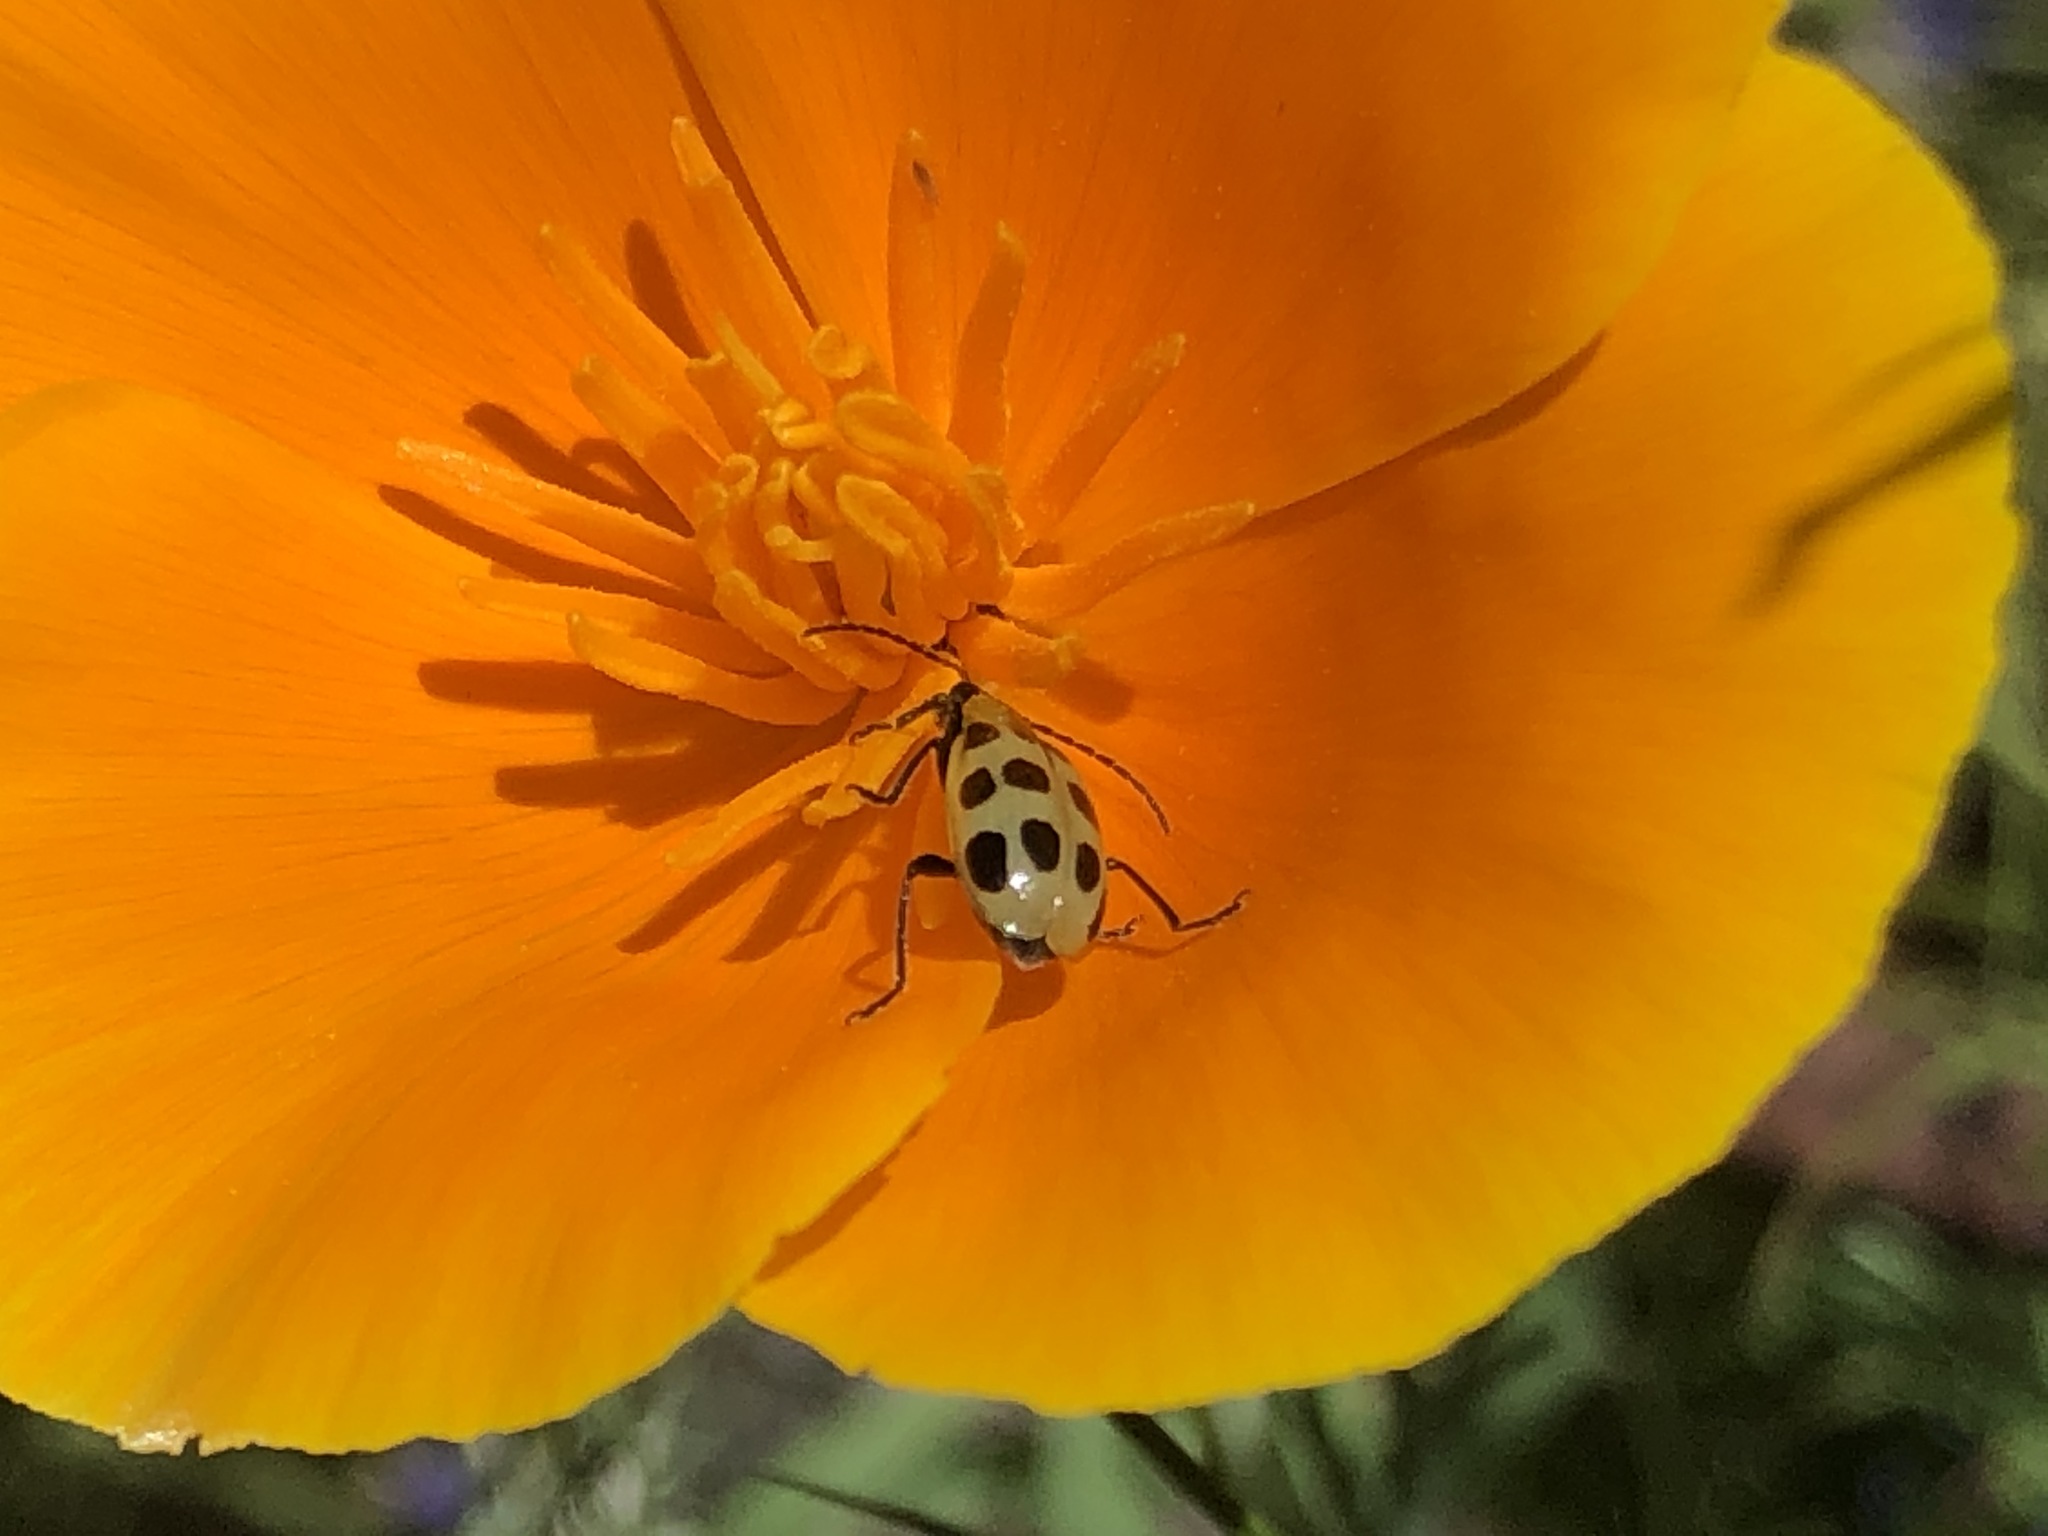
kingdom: Animalia
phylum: Arthropoda
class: Insecta
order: Coleoptera
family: Chrysomelidae
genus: Diabrotica
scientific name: Diabrotica undecimpunctata
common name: Spotted cucumber beetle
